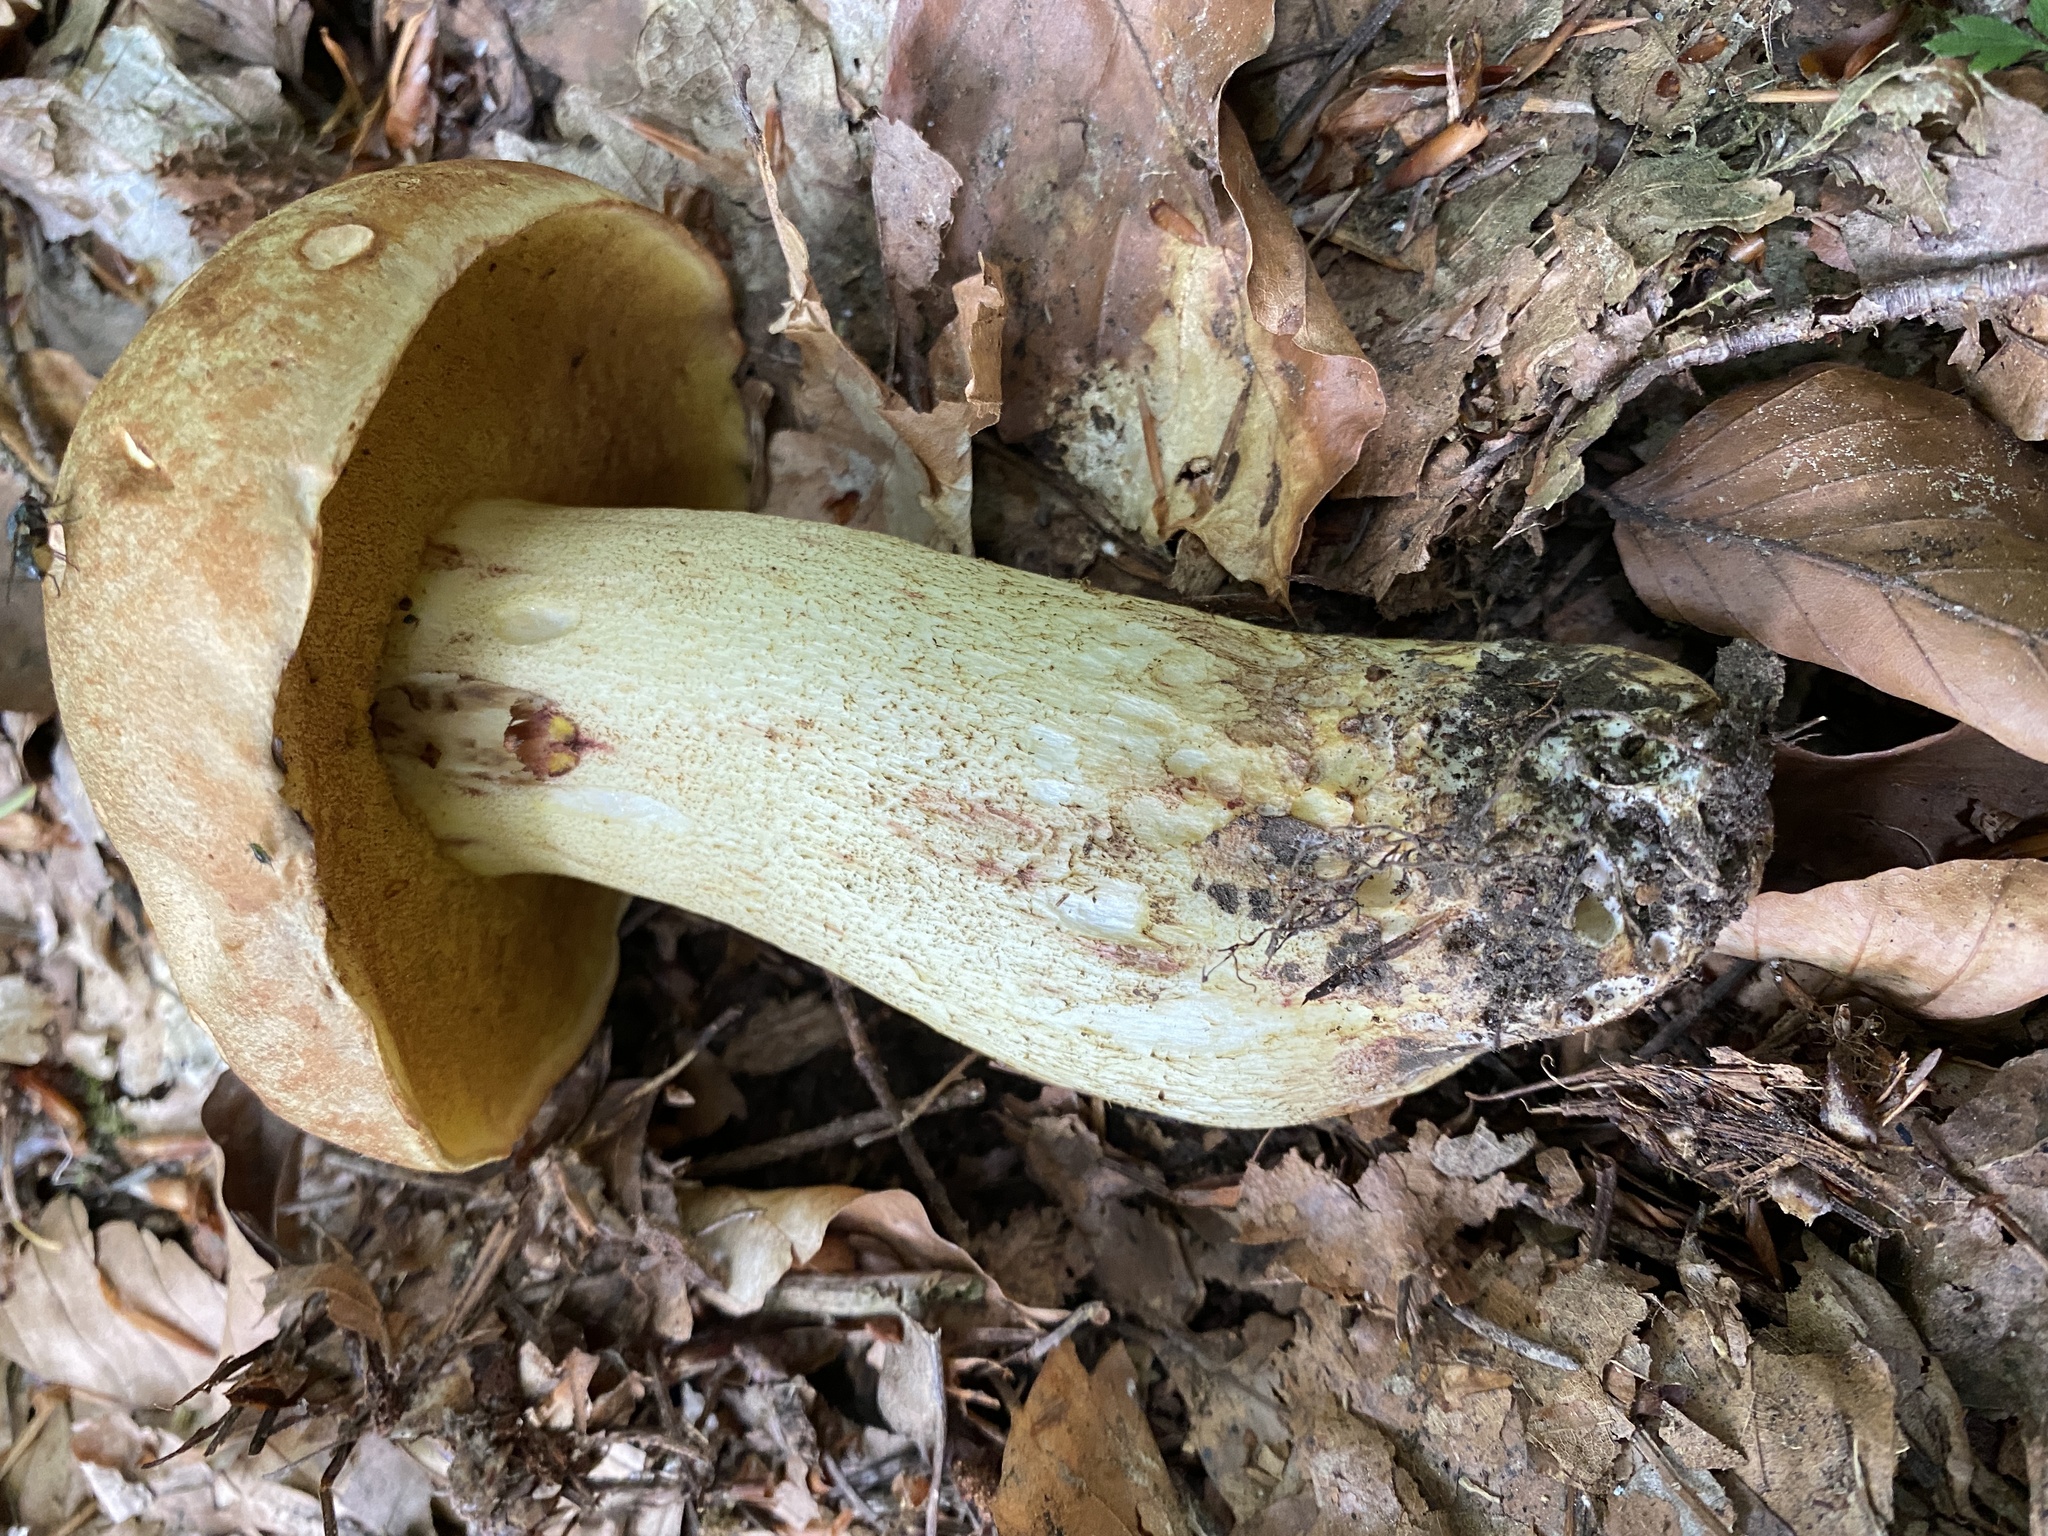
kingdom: Fungi
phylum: Basidiomycota
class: Agaricomycetes
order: Boletales
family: Boletaceae
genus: Hemileccinum
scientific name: Hemileccinum impolitum
